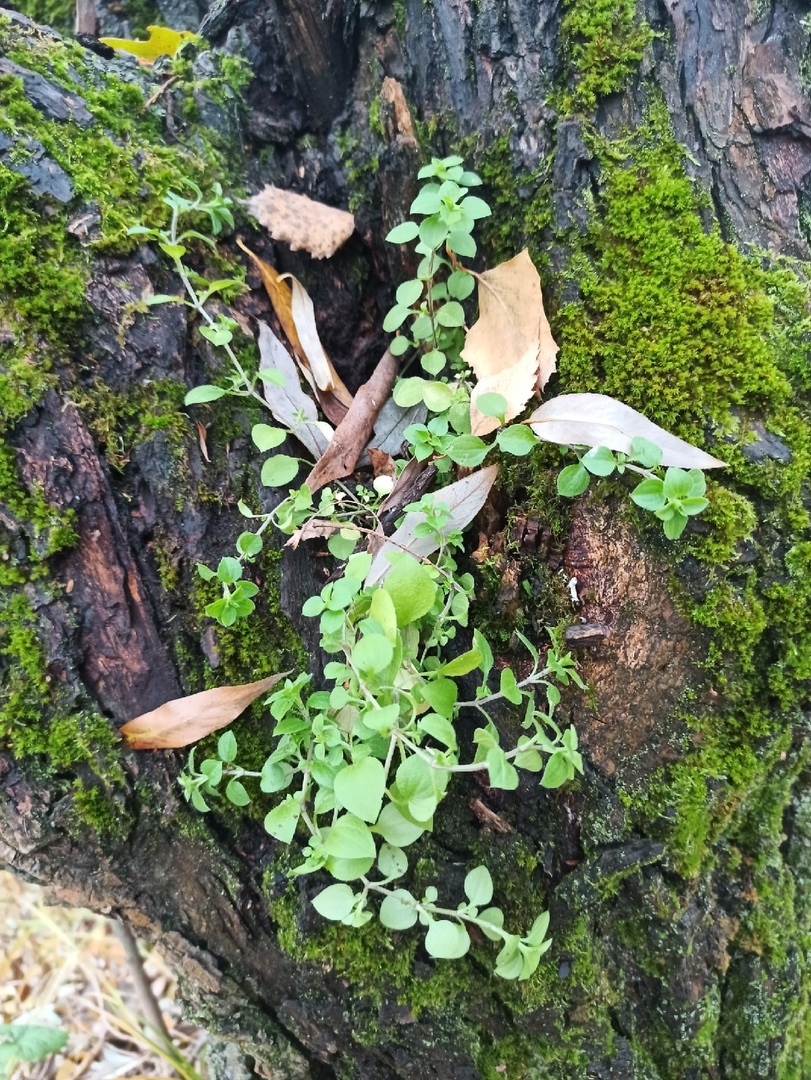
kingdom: Plantae
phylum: Tracheophyta
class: Magnoliopsida
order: Caryophyllales
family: Caryophyllaceae
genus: Moehringia
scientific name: Moehringia trinervia
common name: Three-nerved sandwort
